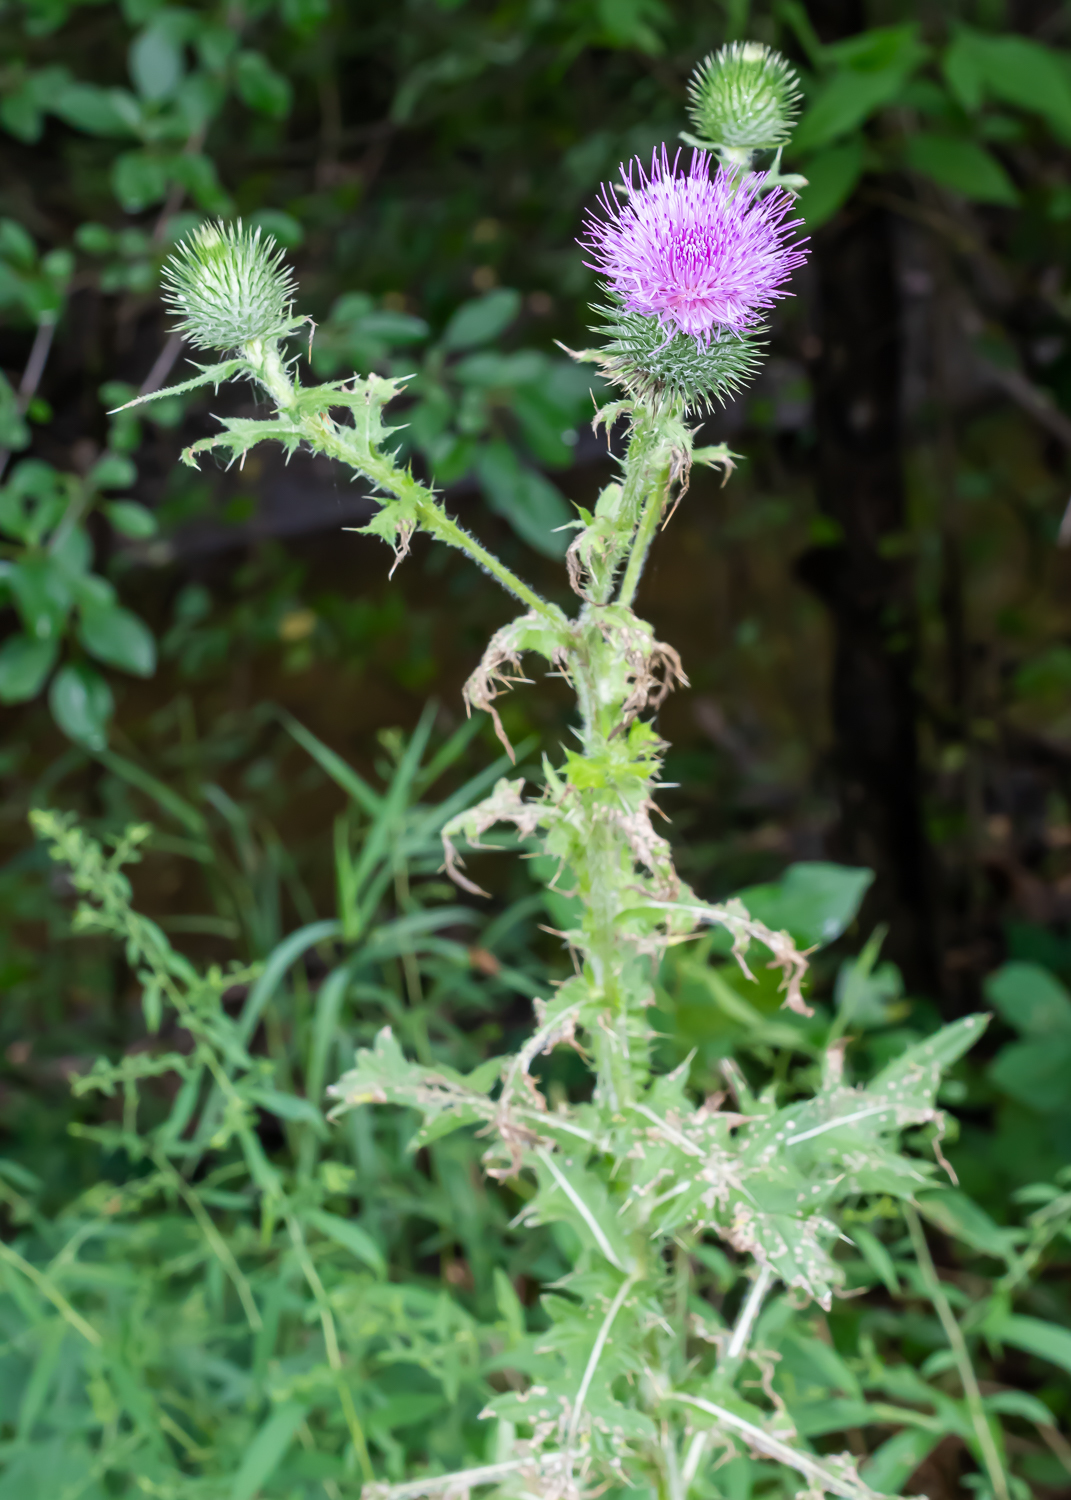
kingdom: Plantae
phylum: Tracheophyta
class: Magnoliopsida
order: Asterales
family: Asteraceae
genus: Cirsium
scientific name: Cirsium vulgare
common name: Bull thistle
